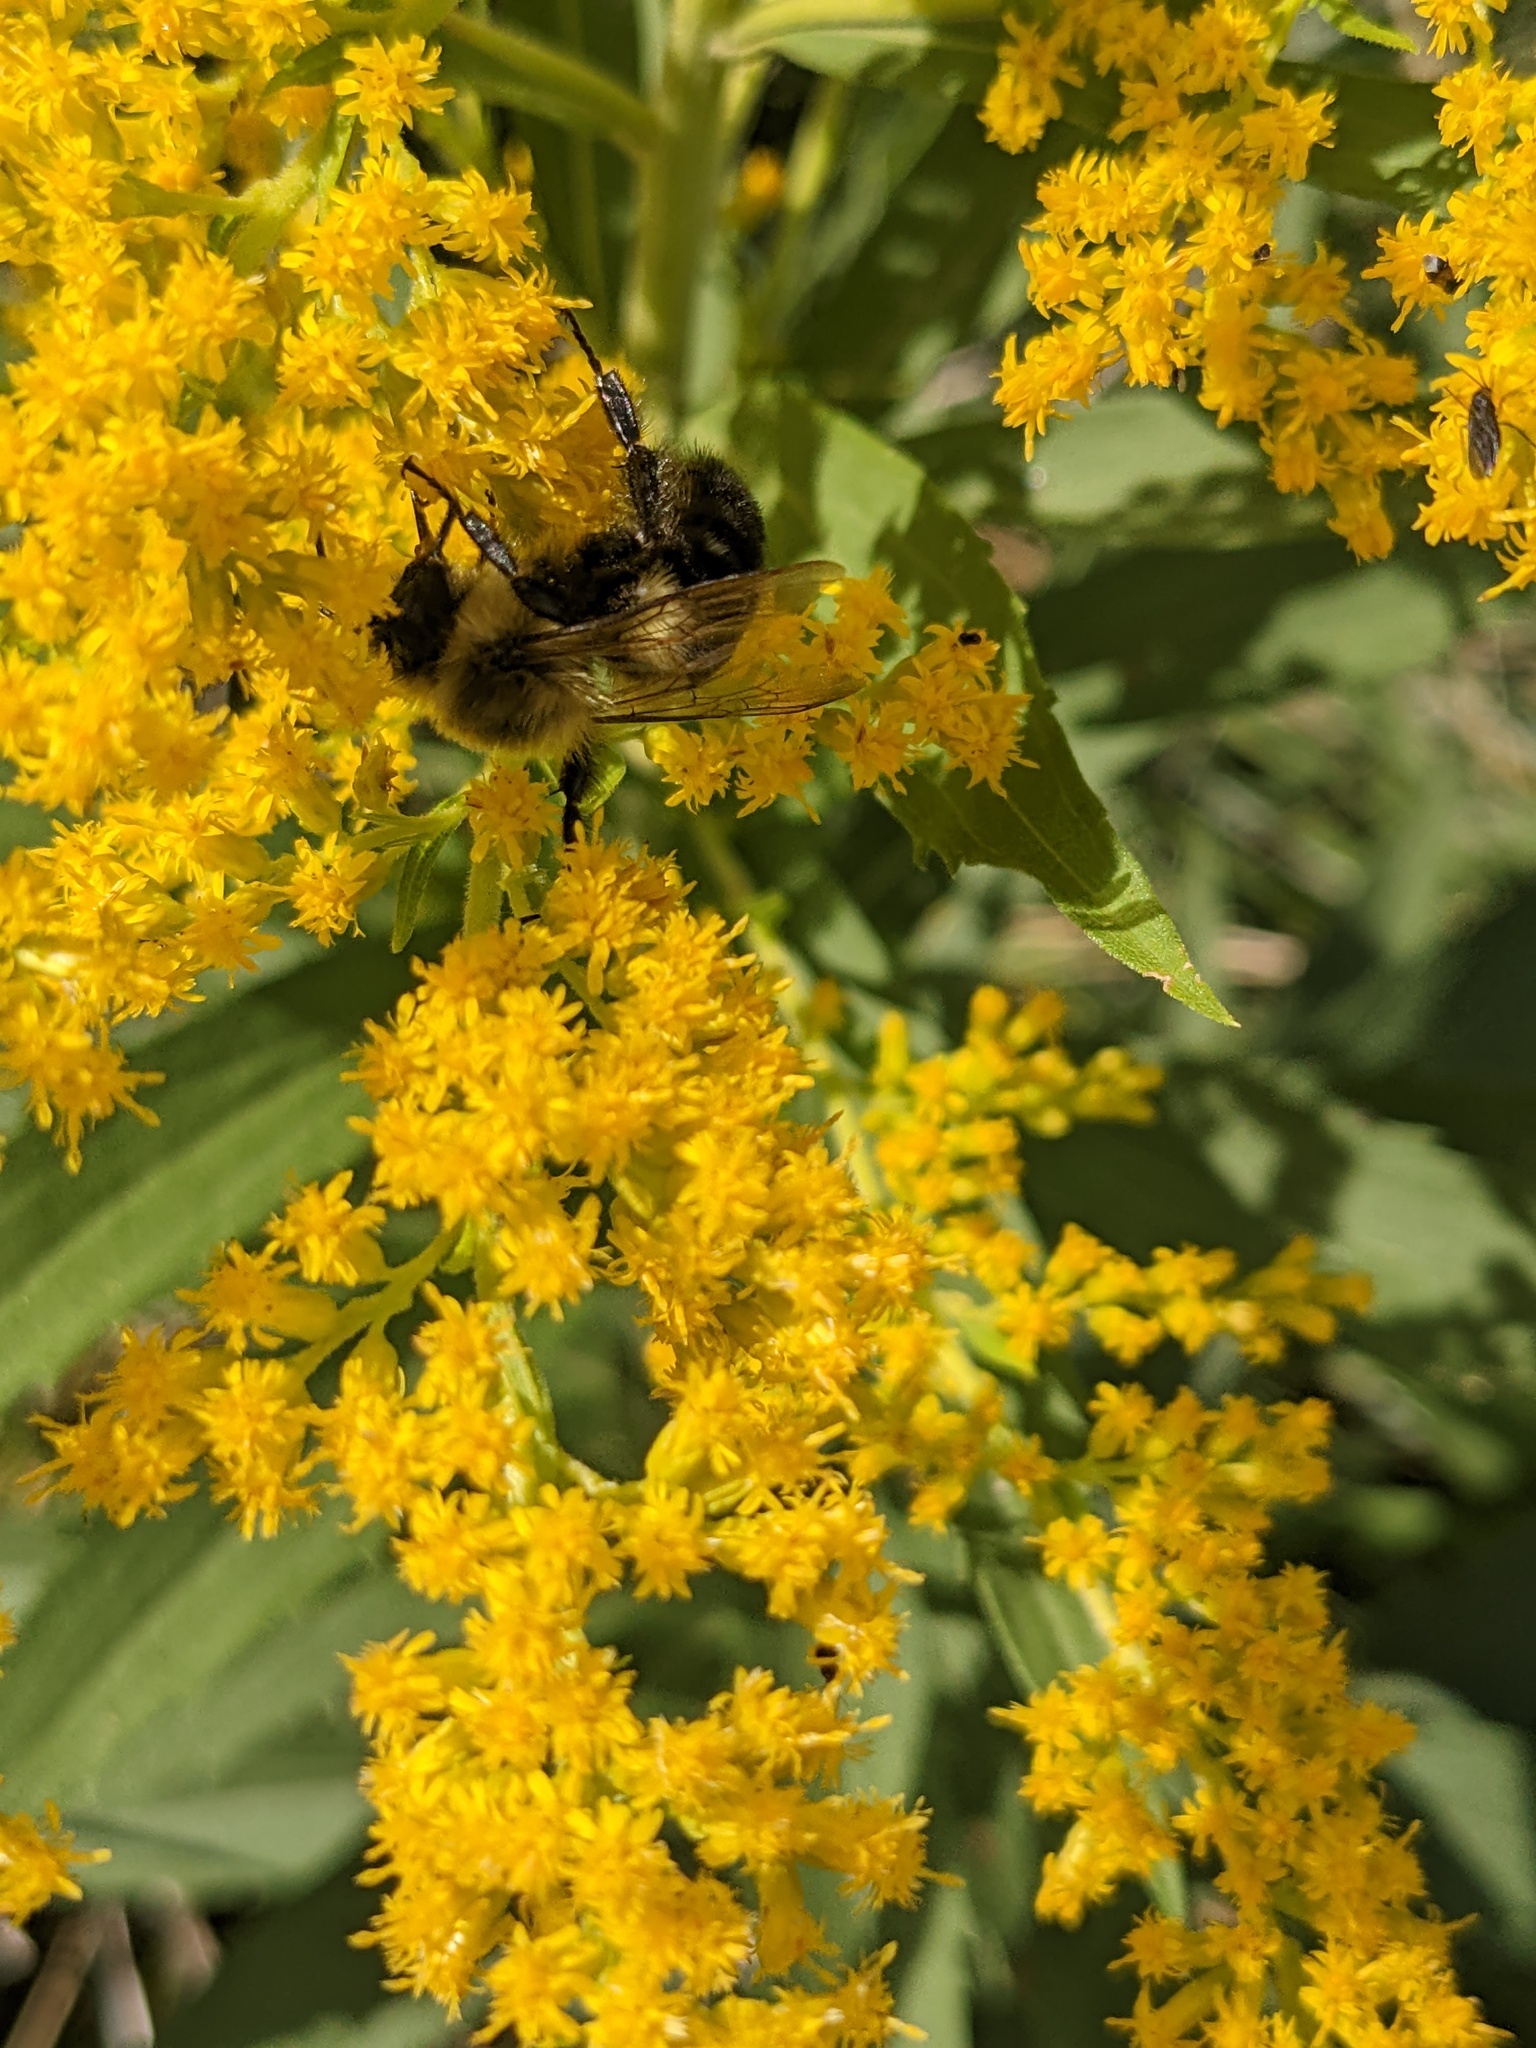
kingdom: Animalia
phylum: Arthropoda
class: Insecta
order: Hymenoptera
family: Apidae
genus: Bombus
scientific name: Bombus impatiens
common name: Common eastern bumble bee
